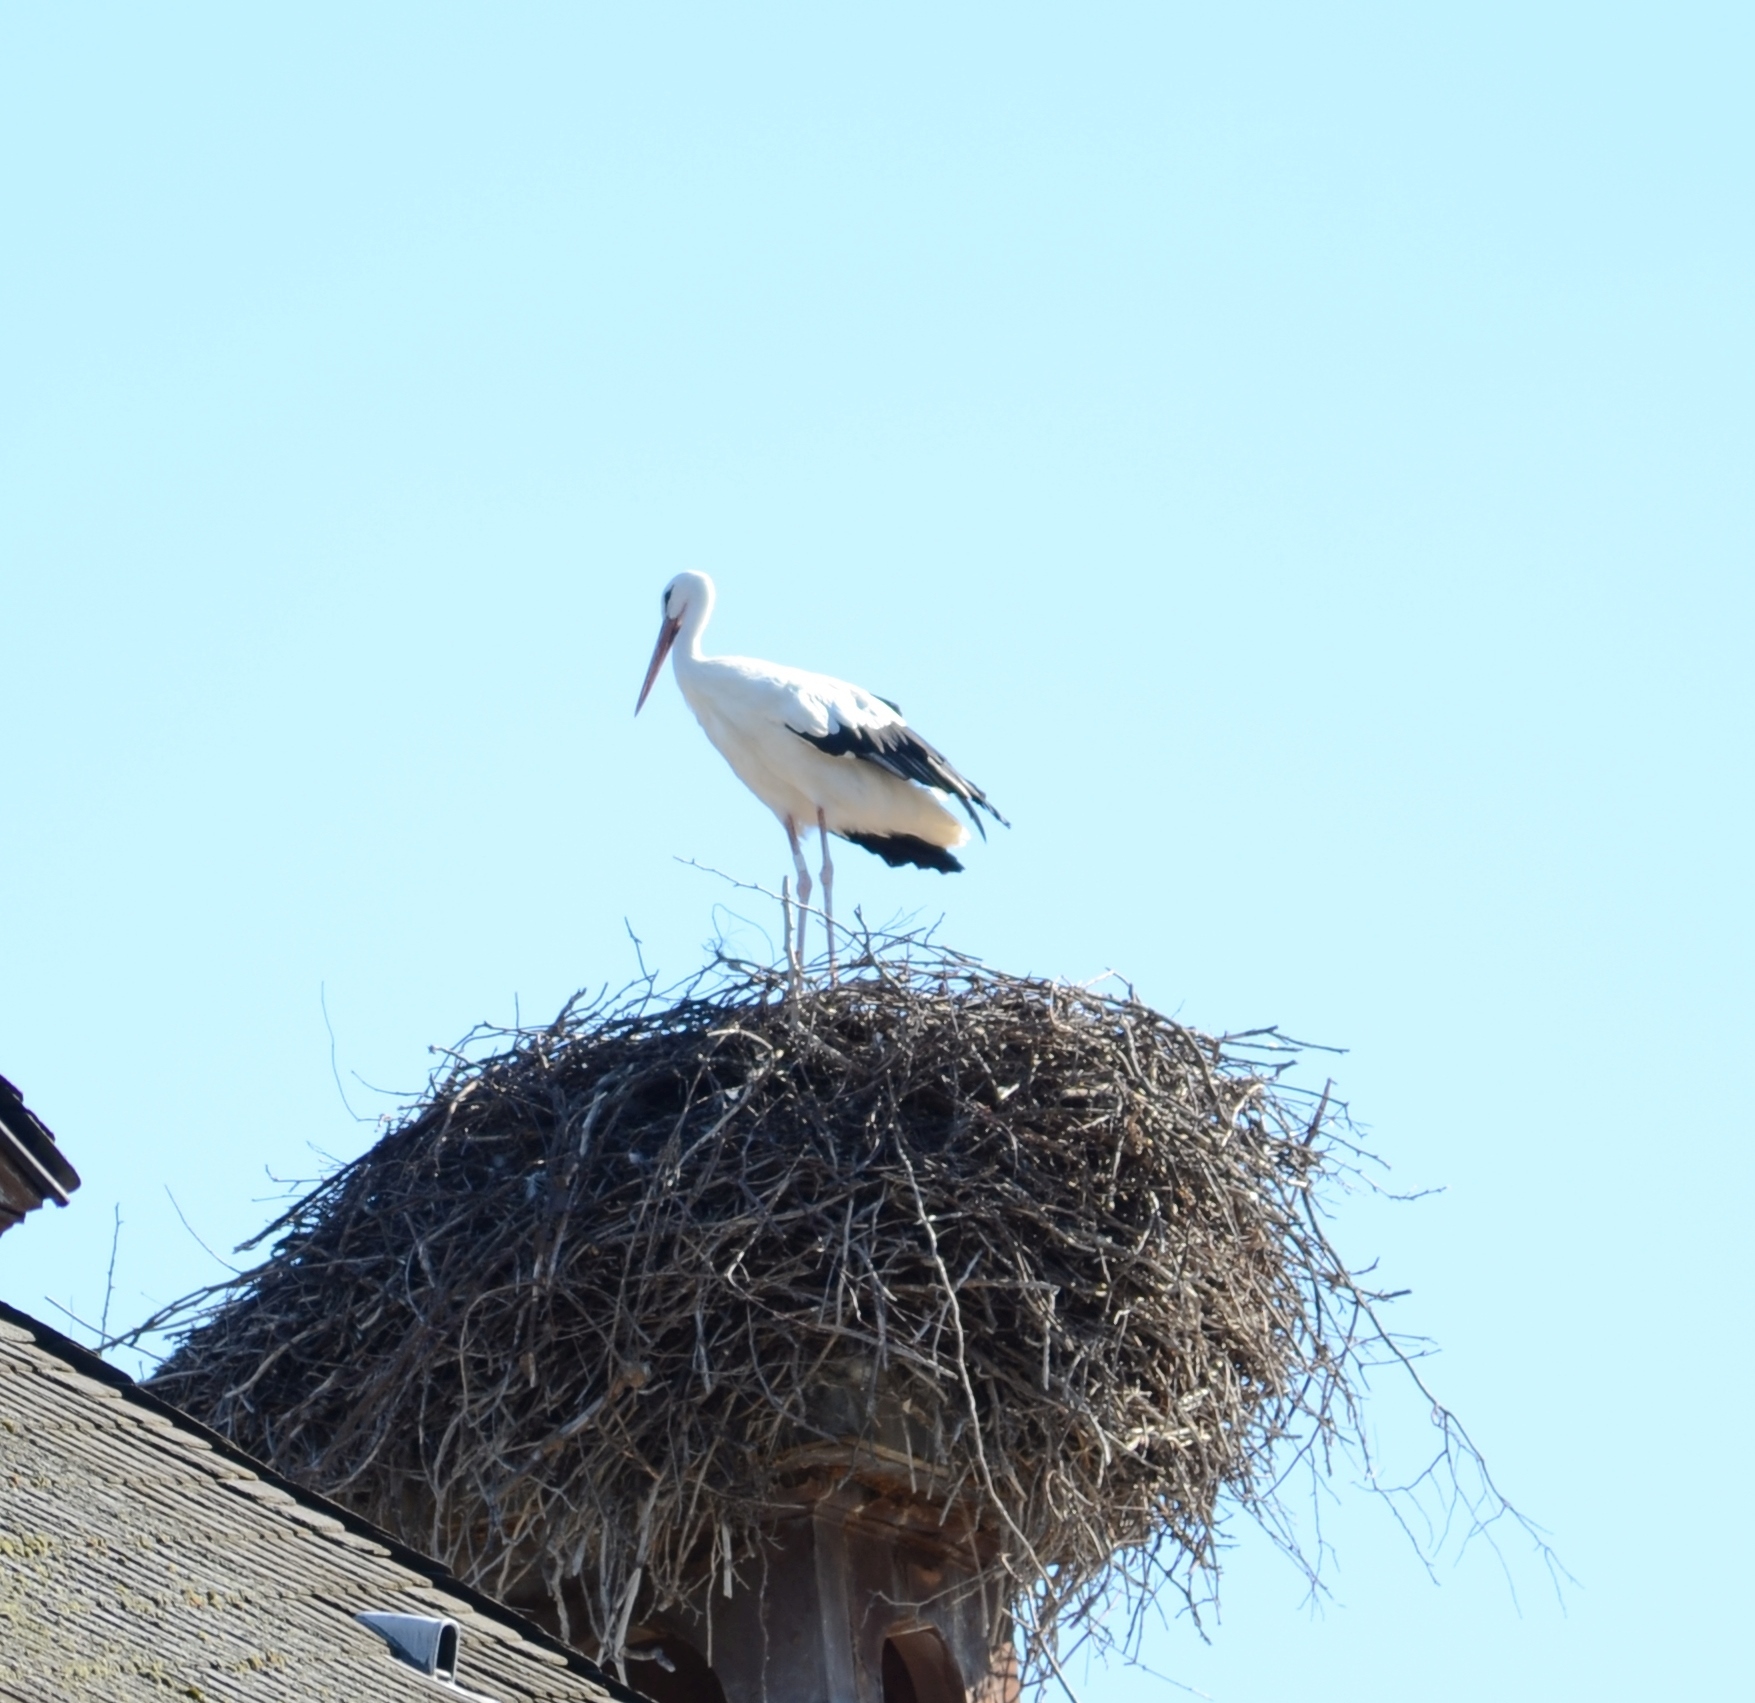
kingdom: Animalia
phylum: Chordata
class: Aves
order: Ciconiiformes
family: Ciconiidae
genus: Ciconia
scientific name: Ciconia ciconia
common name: White stork
